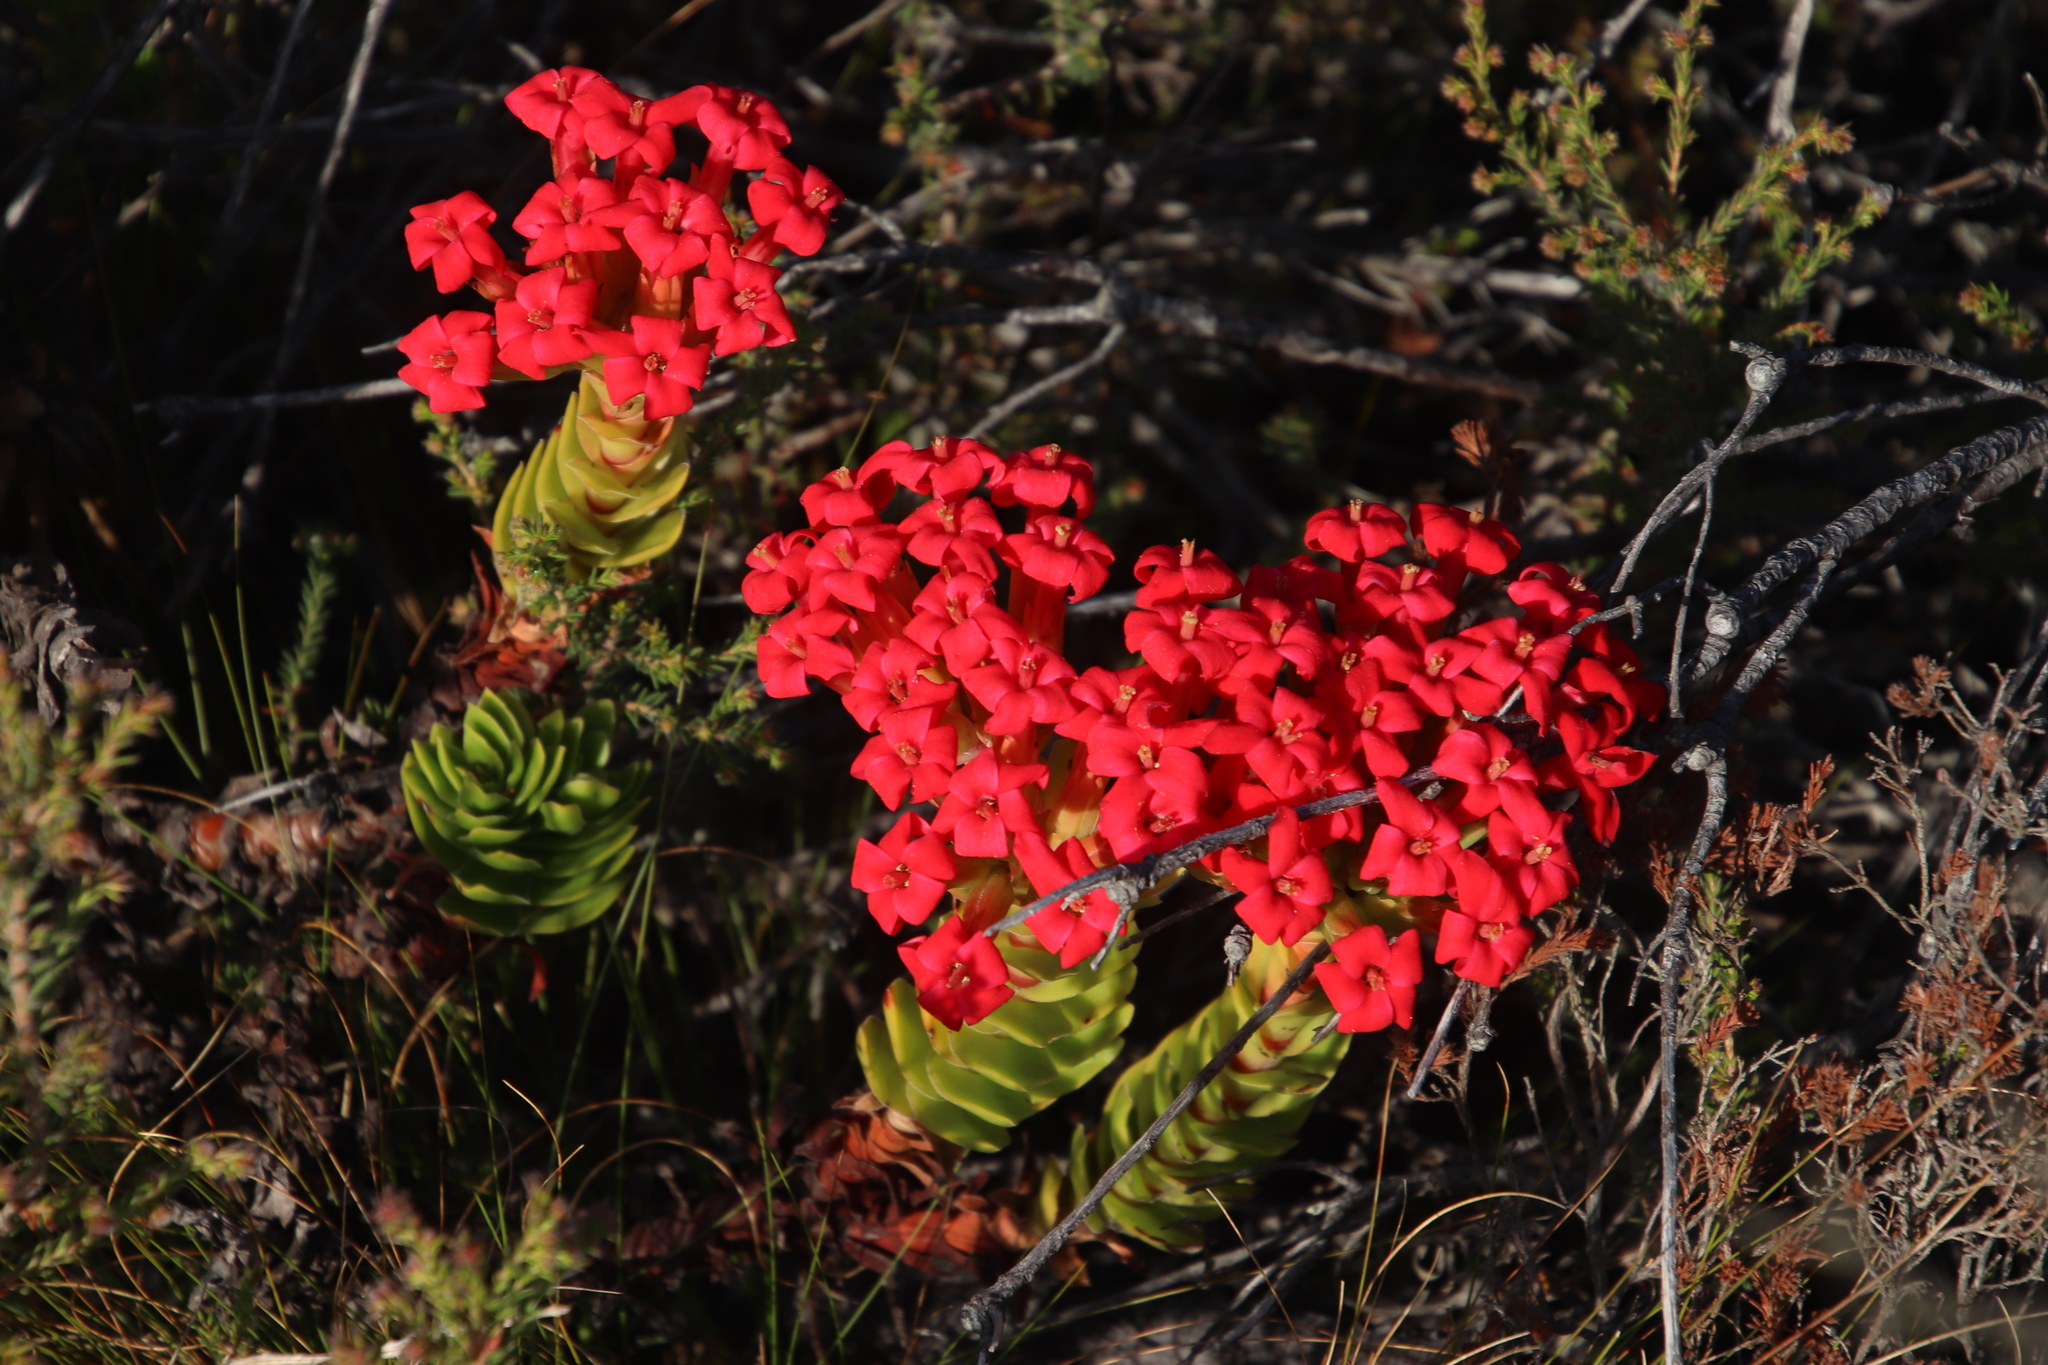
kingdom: Plantae
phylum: Tracheophyta
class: Magnoliopsida
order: Saxifragales
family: Crassulaceae
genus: Crassula
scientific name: Crassula coccinea
